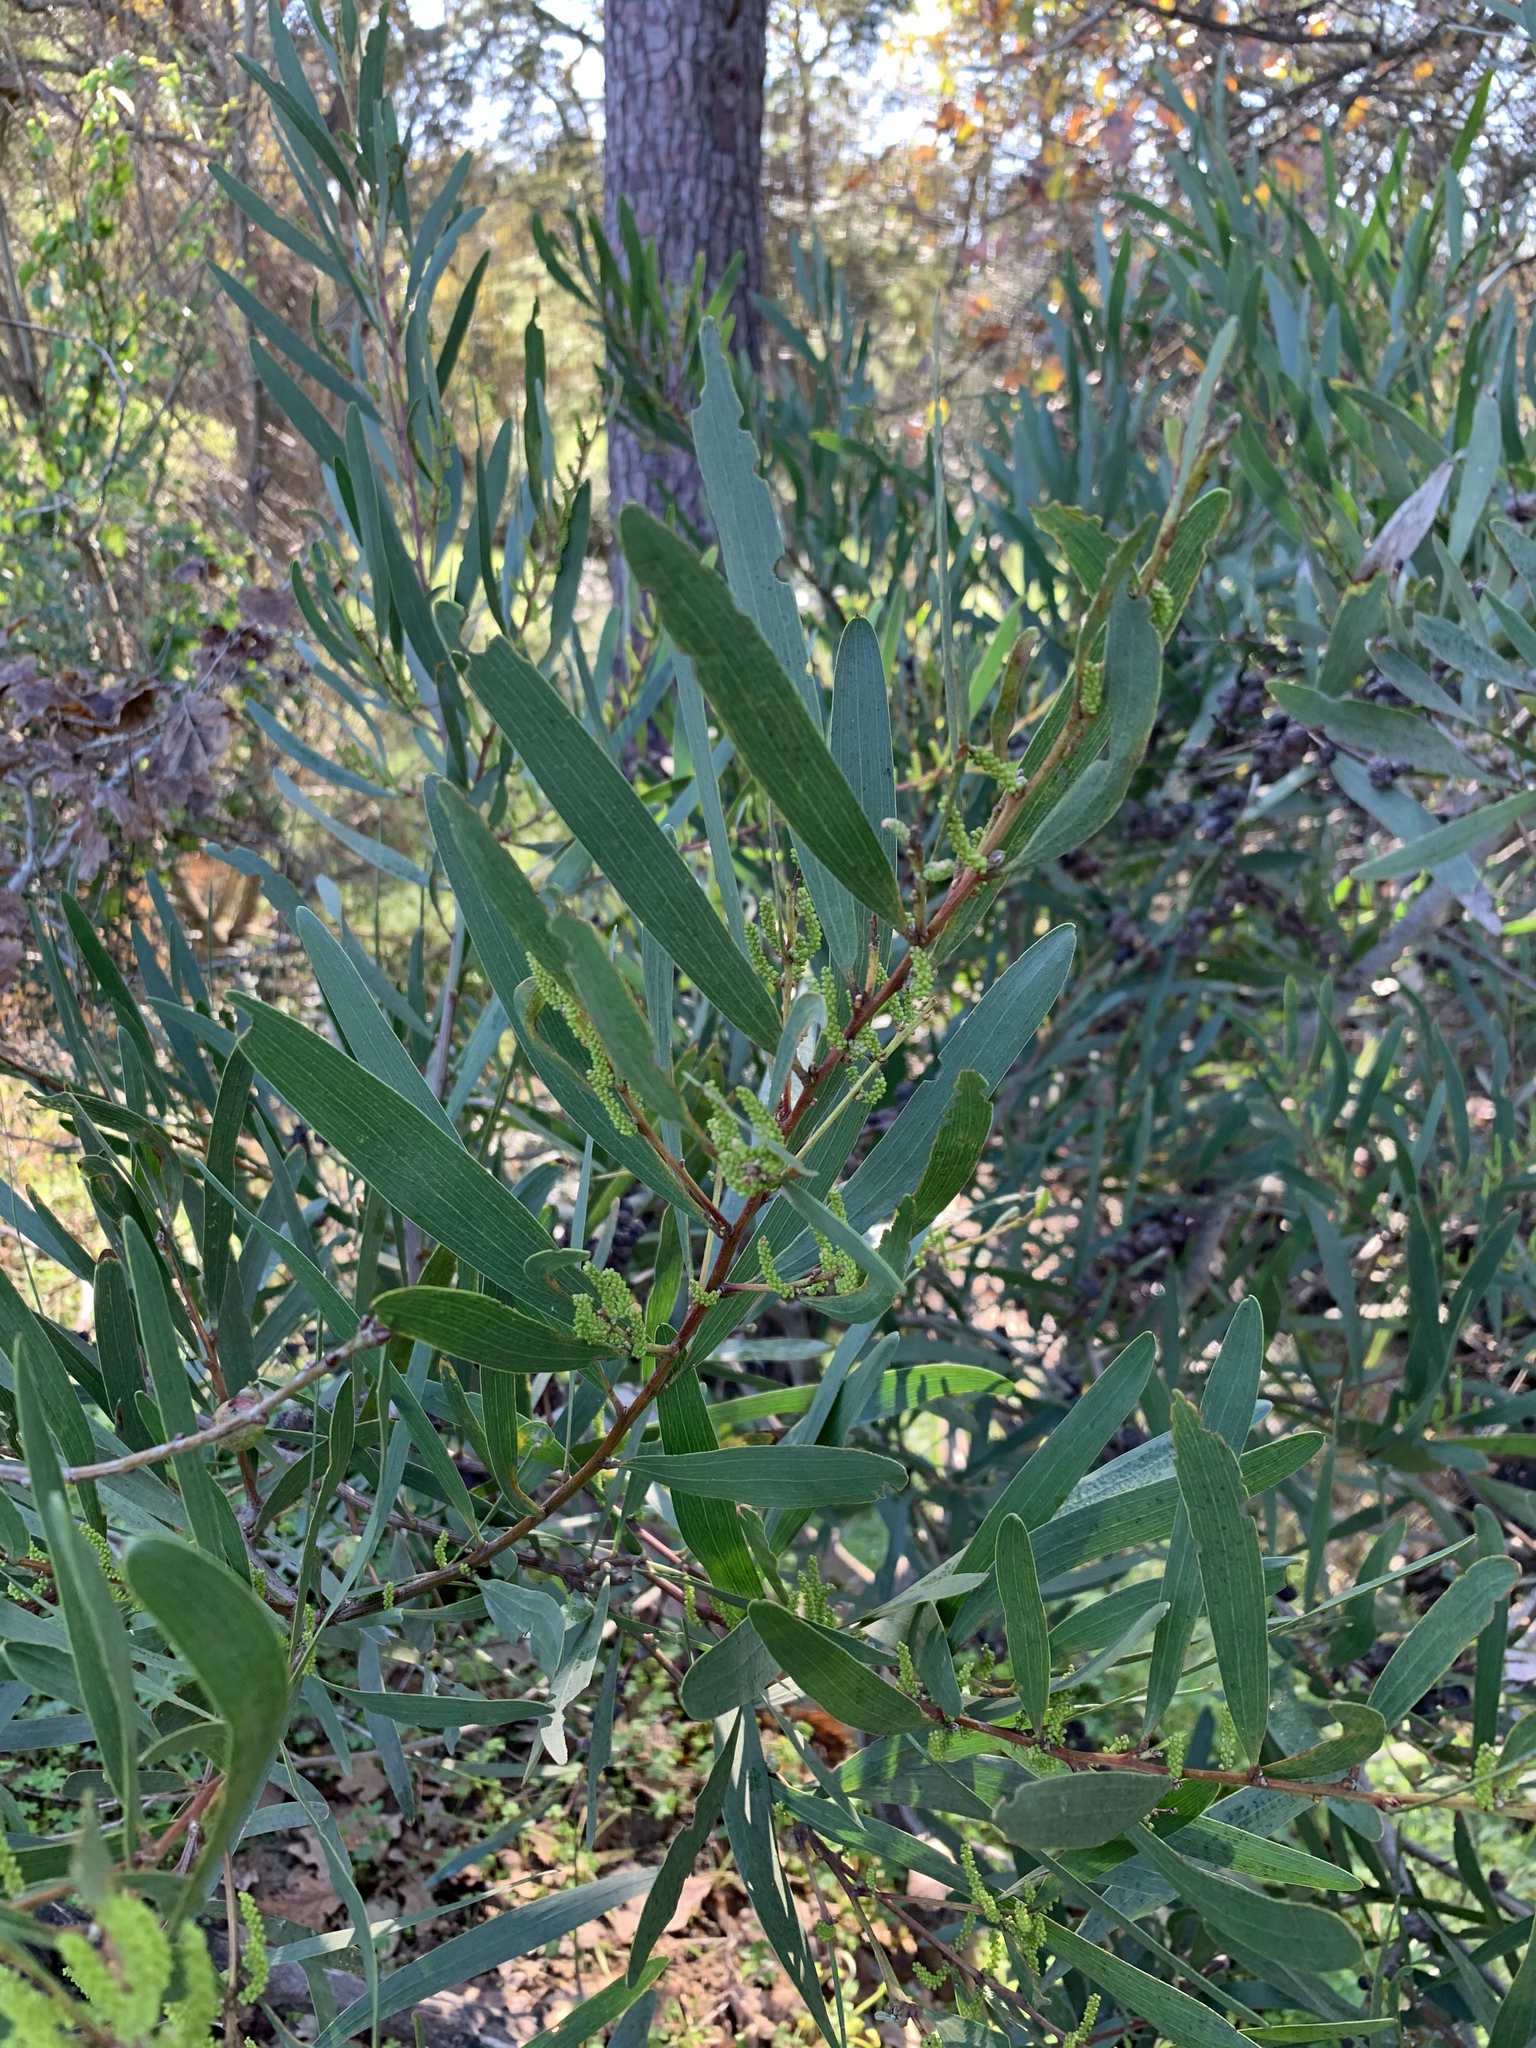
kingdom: Plantae
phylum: Tracheophyta
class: Magnoliopsida
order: Fabales
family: Fabaceae
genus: Acacia
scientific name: Acacia longifolia
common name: Sydney golden wattle
